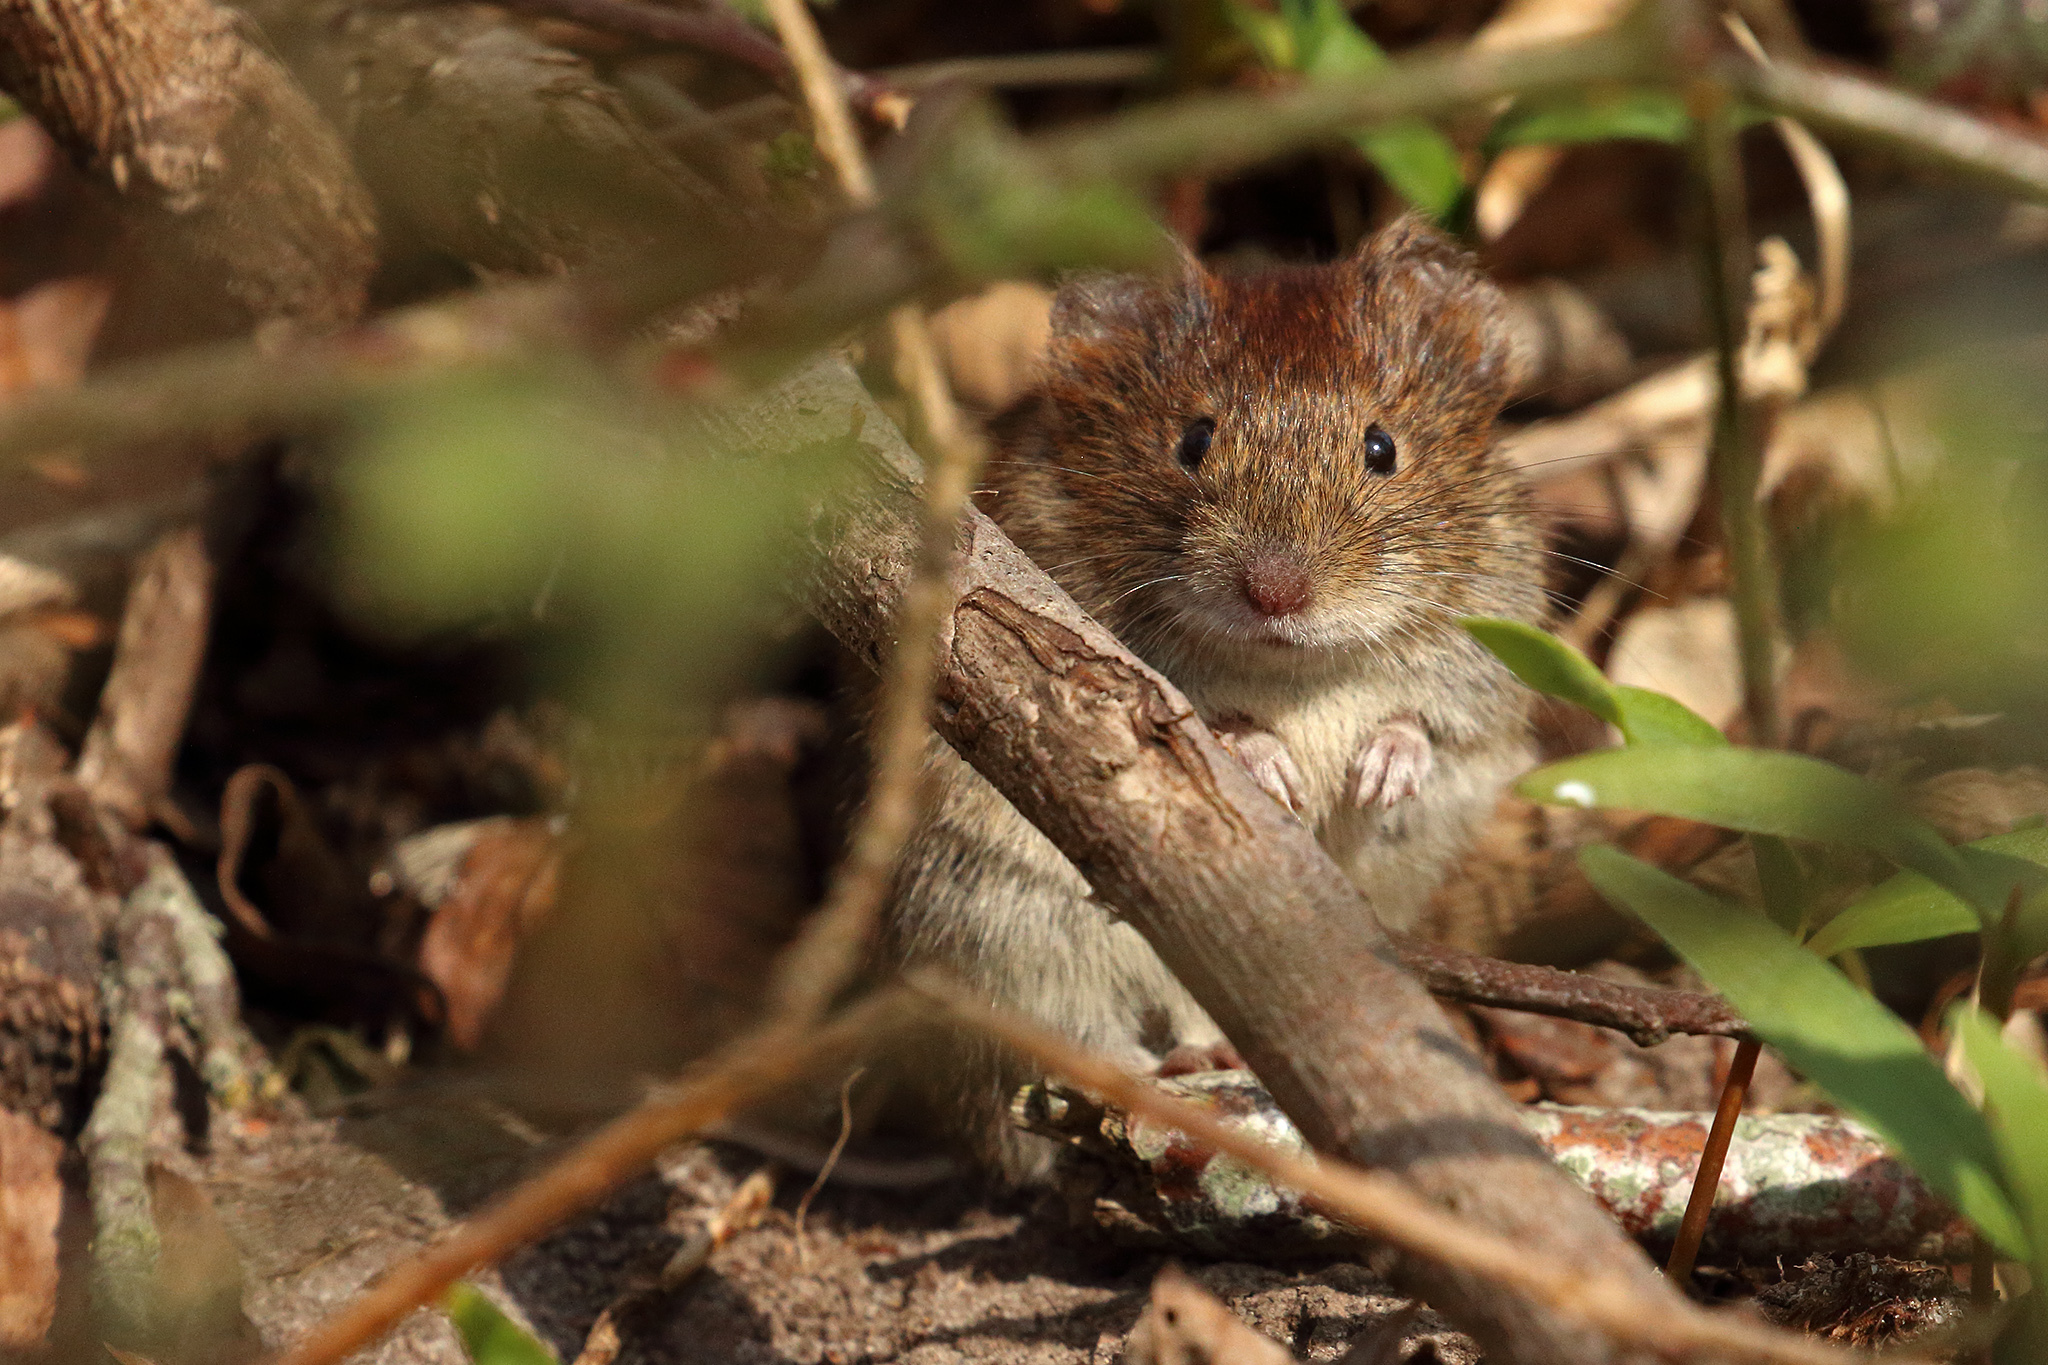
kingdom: Animalia
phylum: Chordata
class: Mammalia
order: Rodentia
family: Cricetidae
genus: Myodes
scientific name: Myodes glareolus
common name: Bank vole
